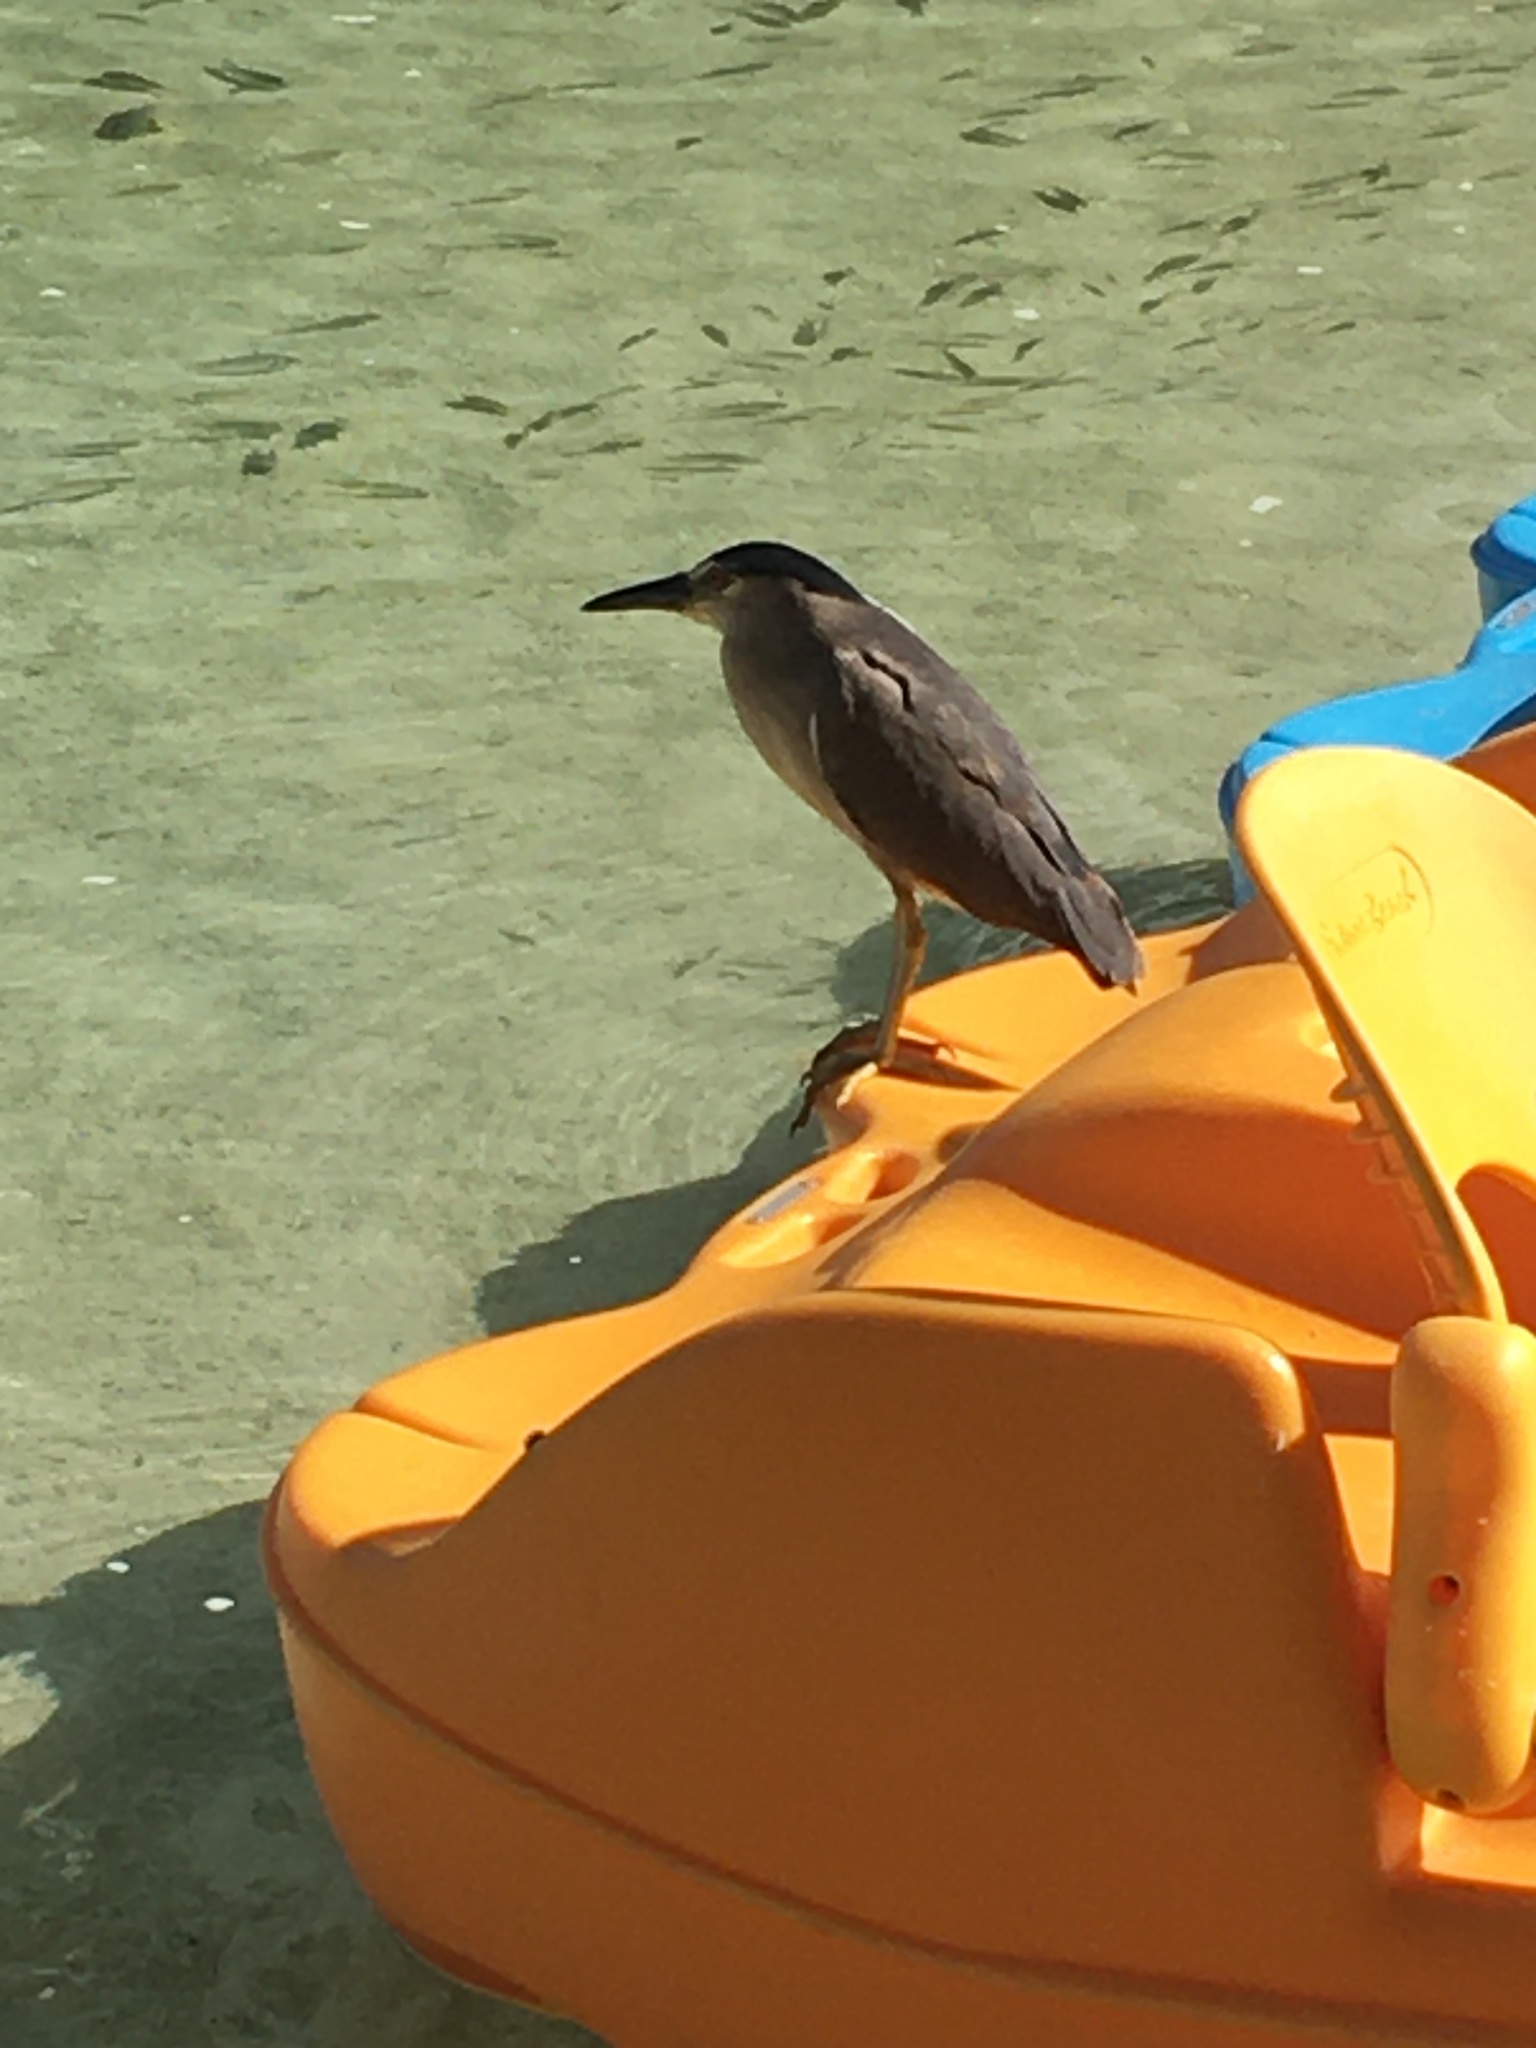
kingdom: Animalia
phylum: Chordata
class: Aves
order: Pelecaniformes
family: Ardeidae
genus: Nycticorax
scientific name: Nycticorax nycticorax
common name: Black-crowned night heron
